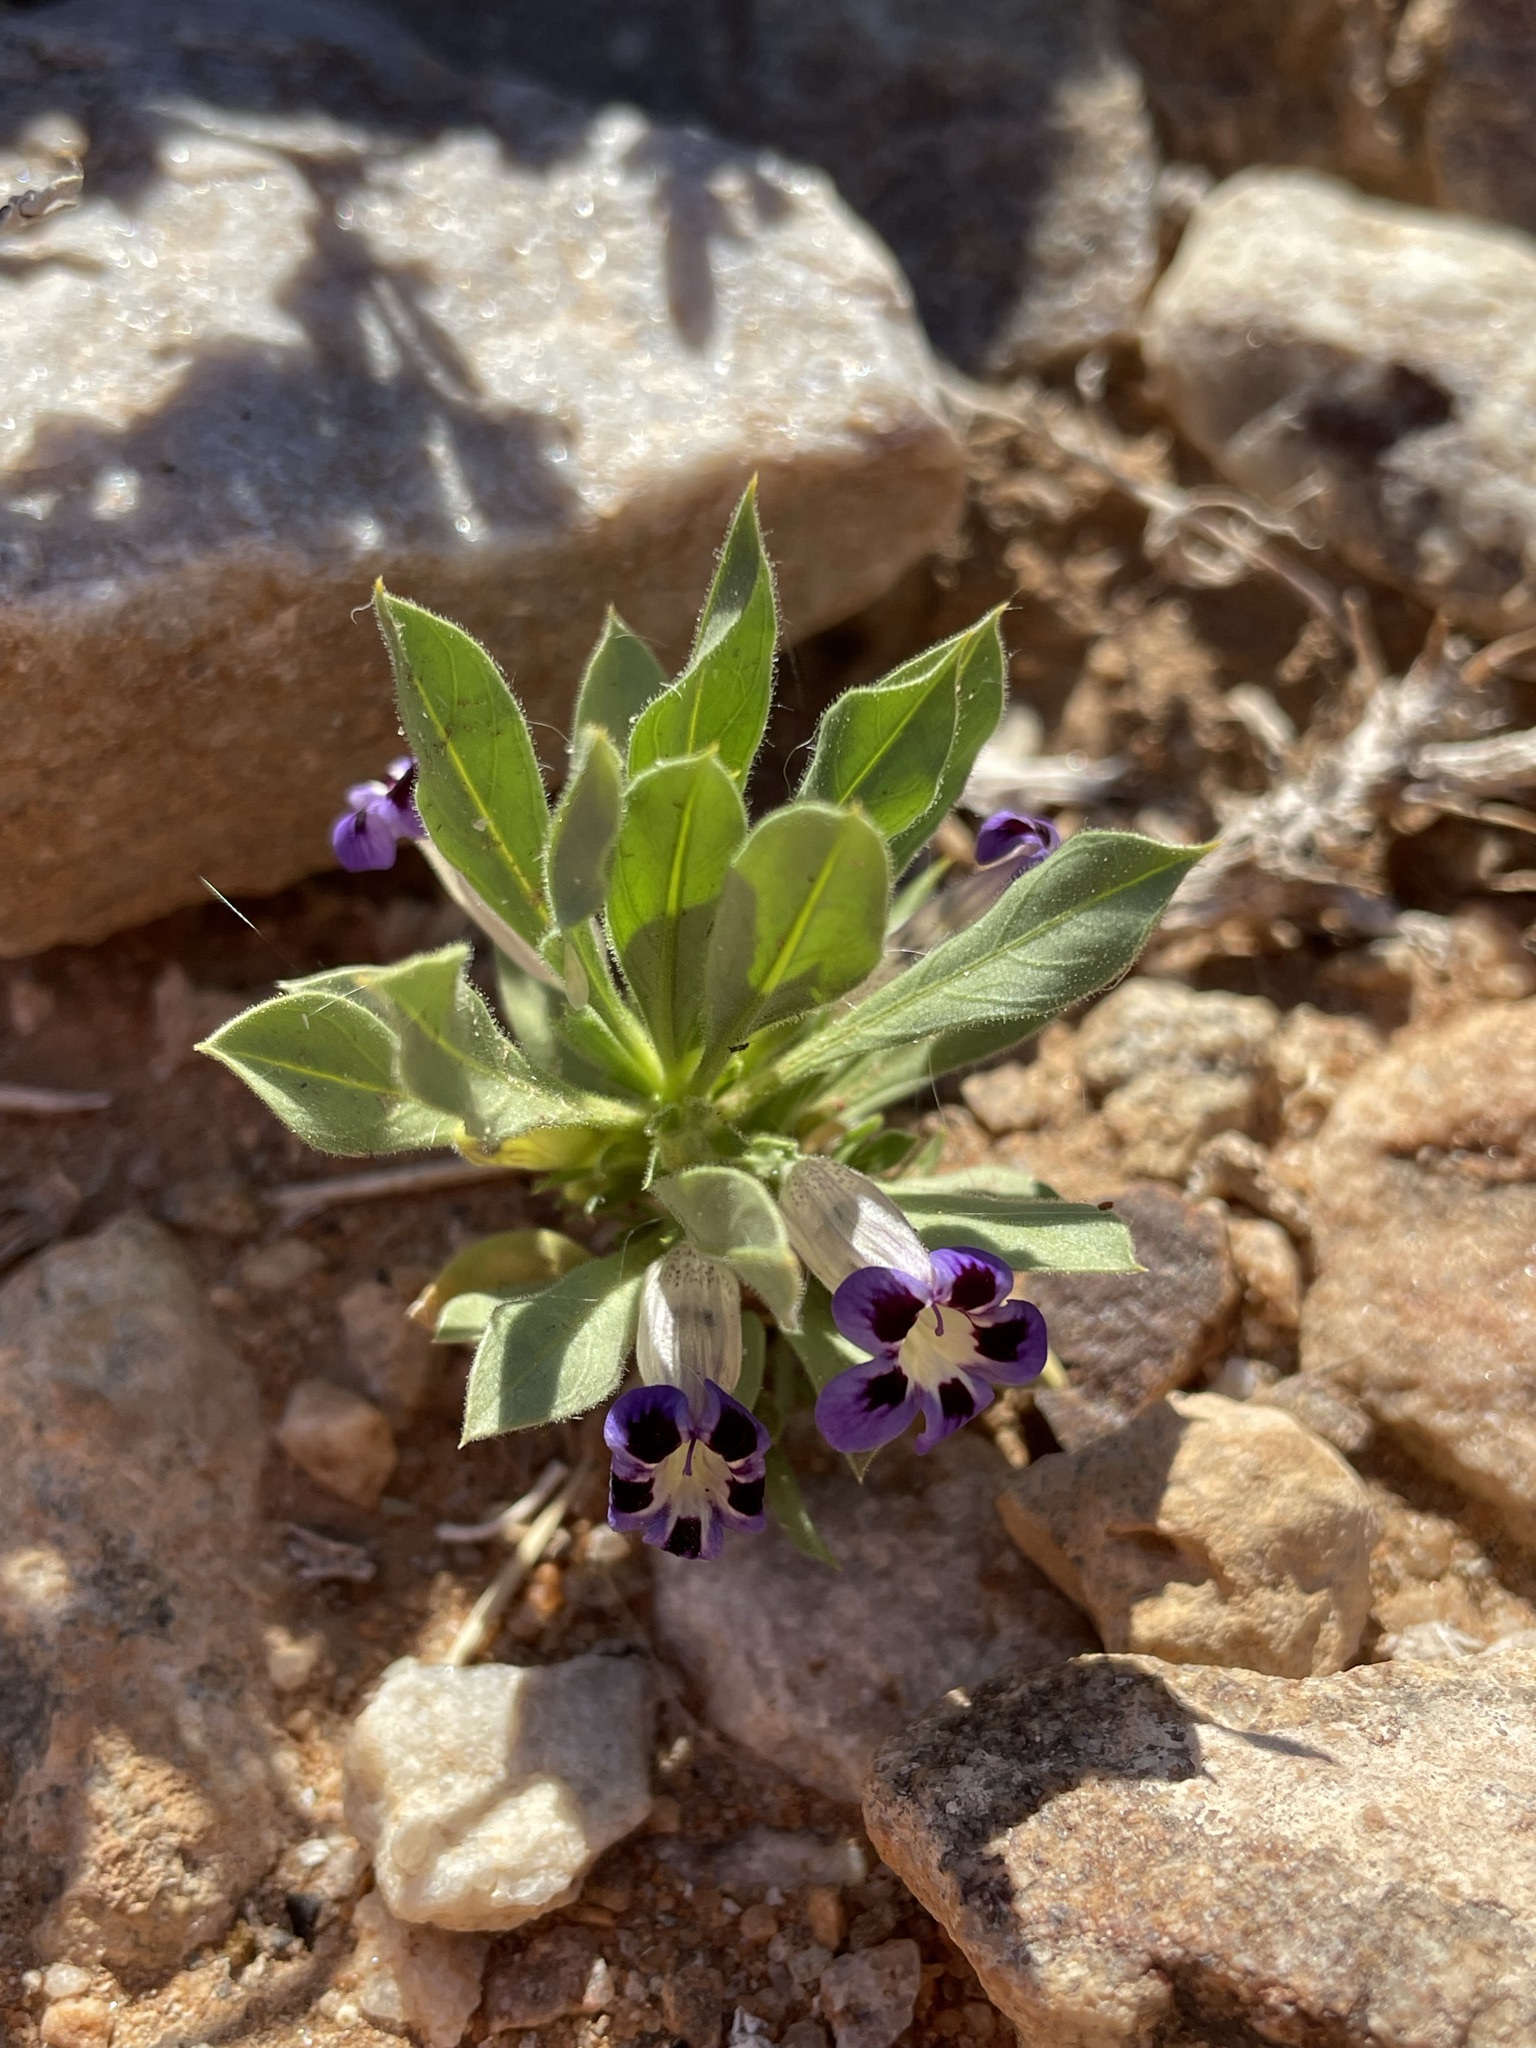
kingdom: Plantae
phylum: Tracheophyta
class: Magnoliopsida
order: Lamiales
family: Scrophulariaceae
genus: Aptosimum
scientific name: Aptosimum indivisum
